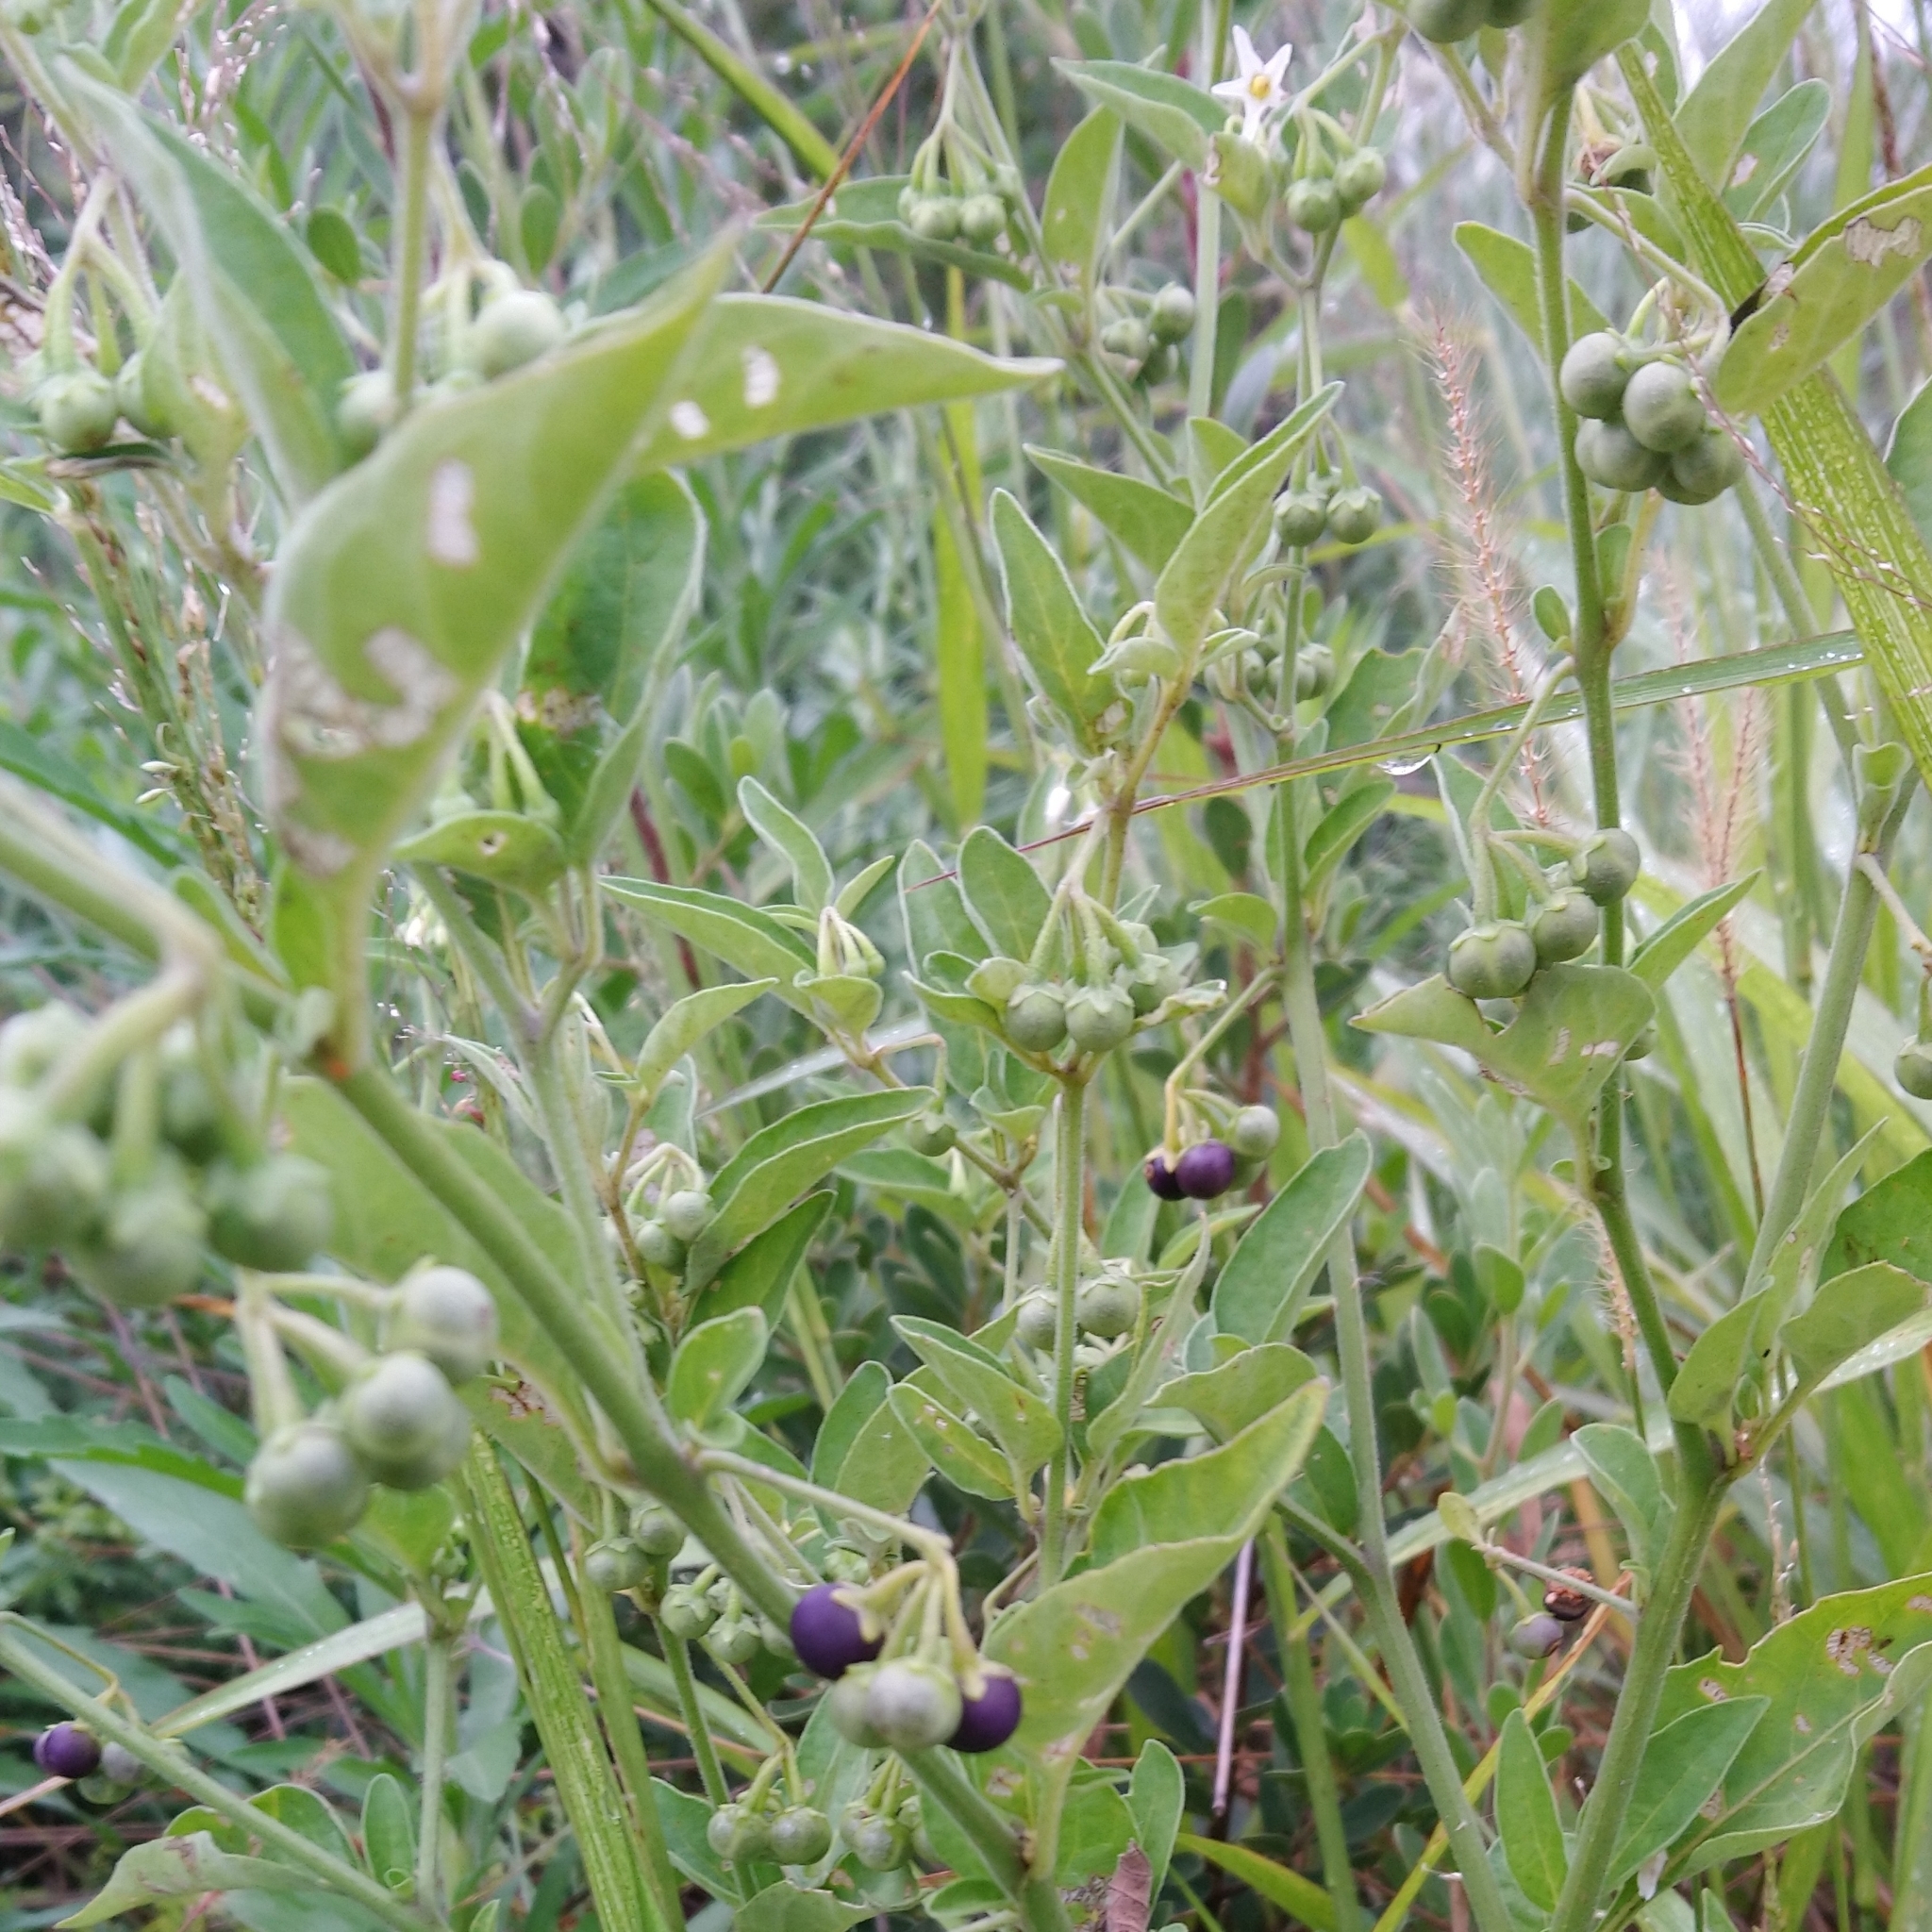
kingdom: Plantae
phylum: Tracheophyta
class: Magnoliopsida
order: Solanales
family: Solanaceae
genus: Solanum
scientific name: Solanum chenopodioides
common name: Tall nightshade
